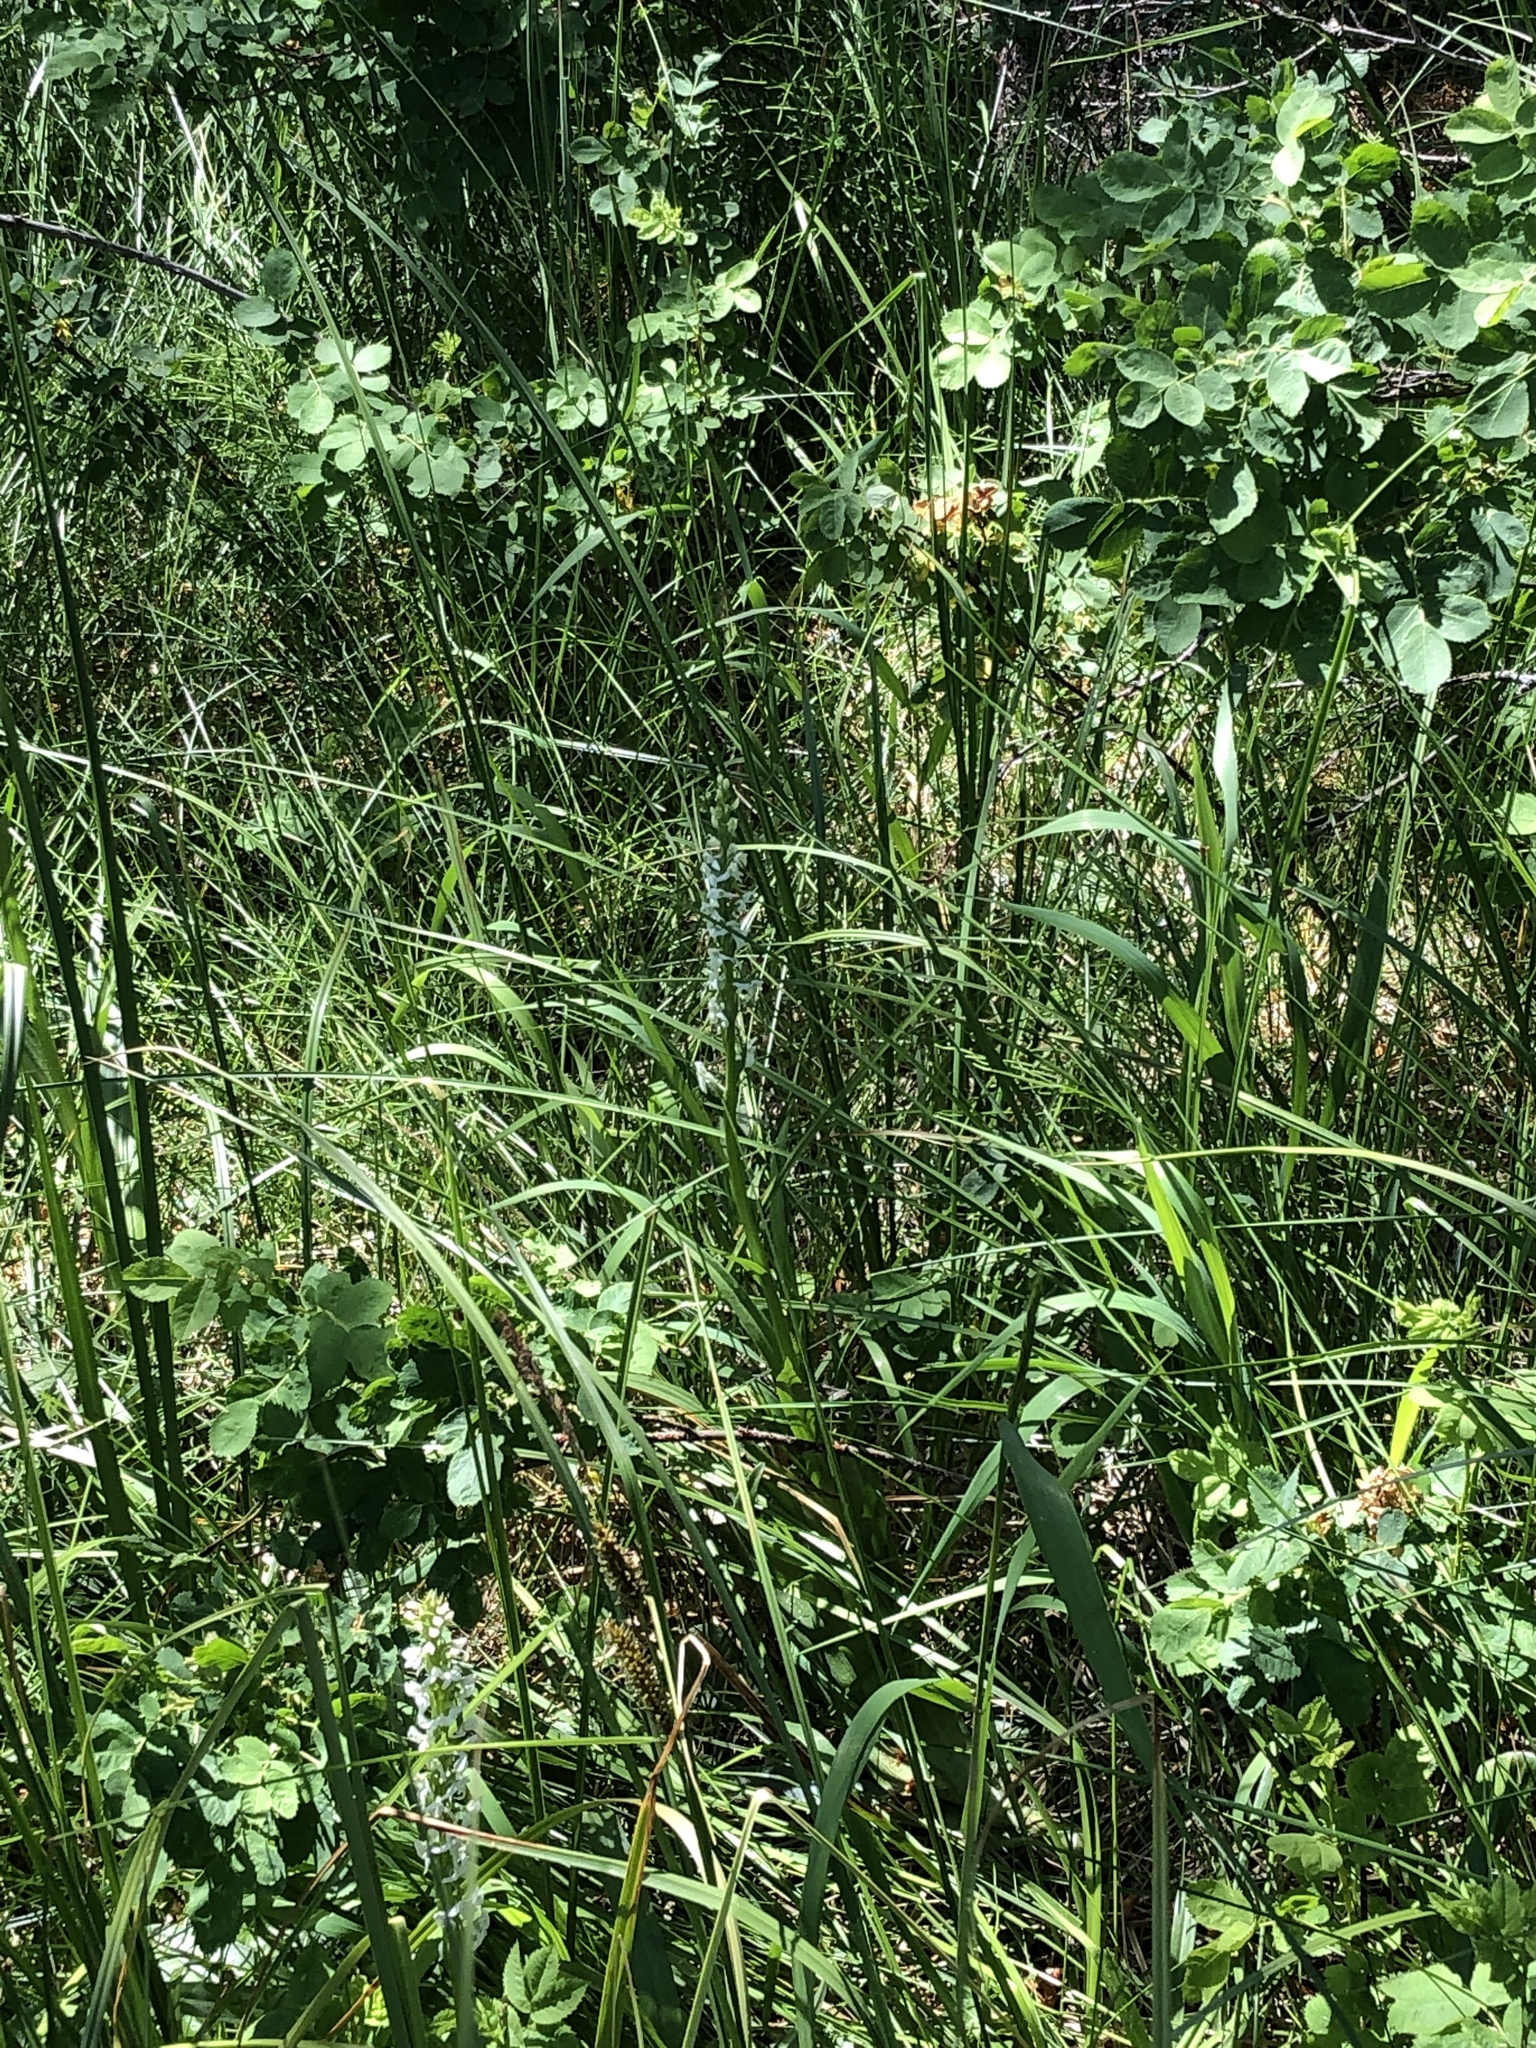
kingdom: Plantae
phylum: Tracheophyta
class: Liliopsida
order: Asparagales
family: Orchidaceae
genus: Platanthera
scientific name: Platanthera dilatata
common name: Bog candles
